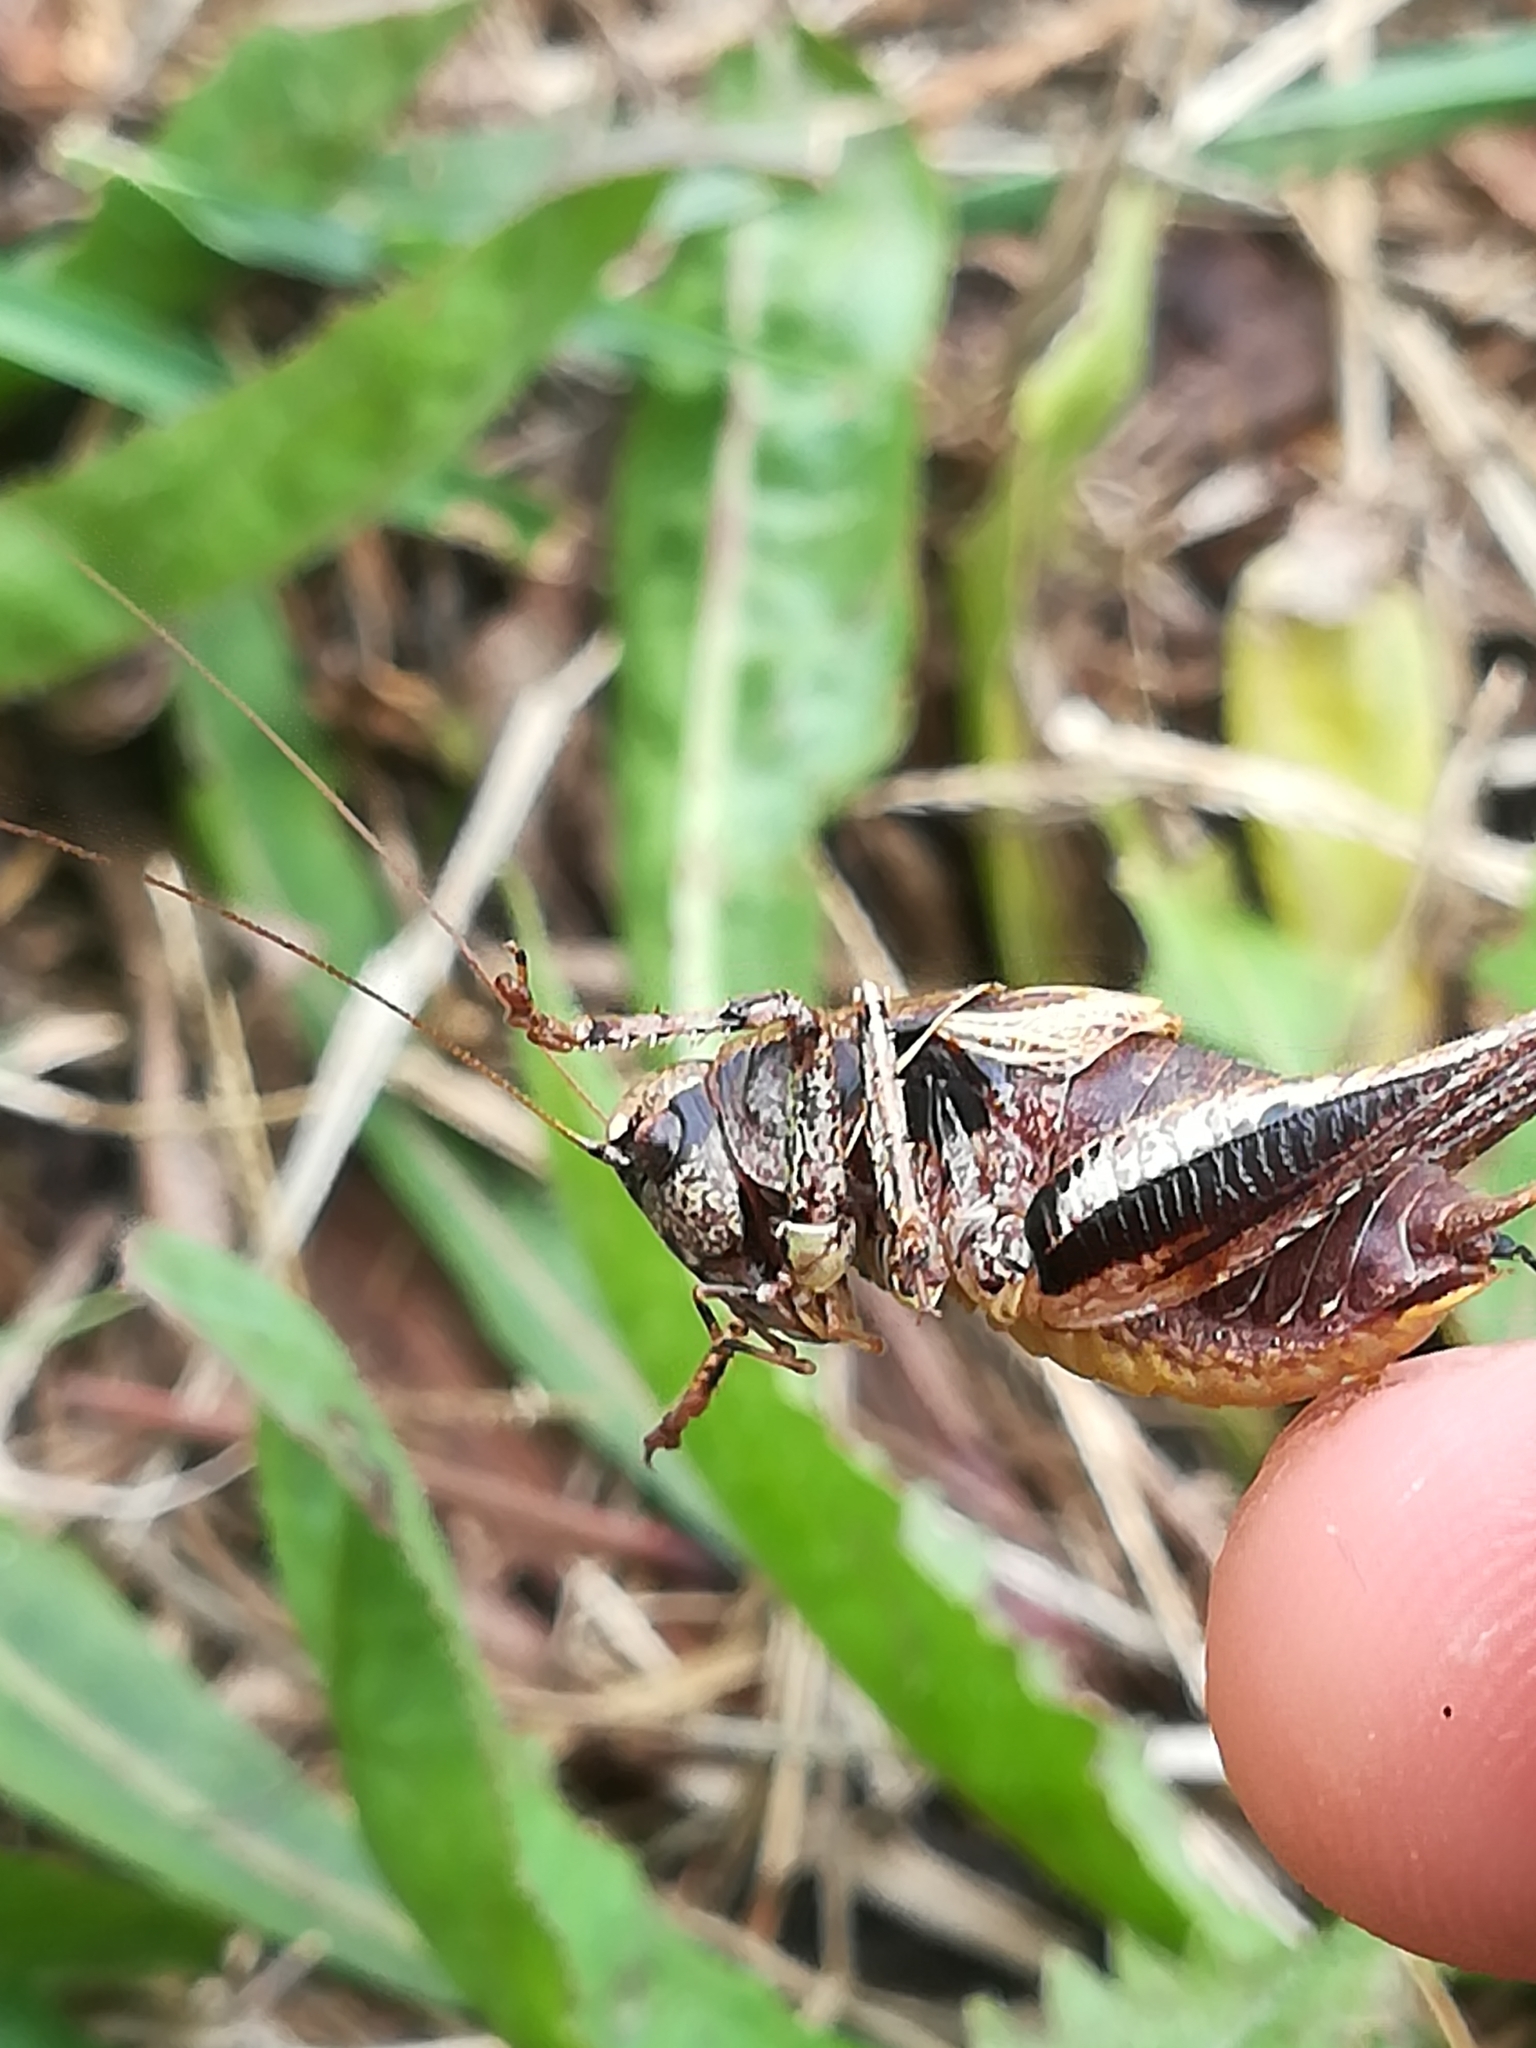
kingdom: Animalia
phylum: Arthropoda
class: Insecta
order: Orthoptera
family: Tettigoniidae
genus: Pholidoptera
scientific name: Pholidoptera griseoaptera
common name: Dark bush-cricket
